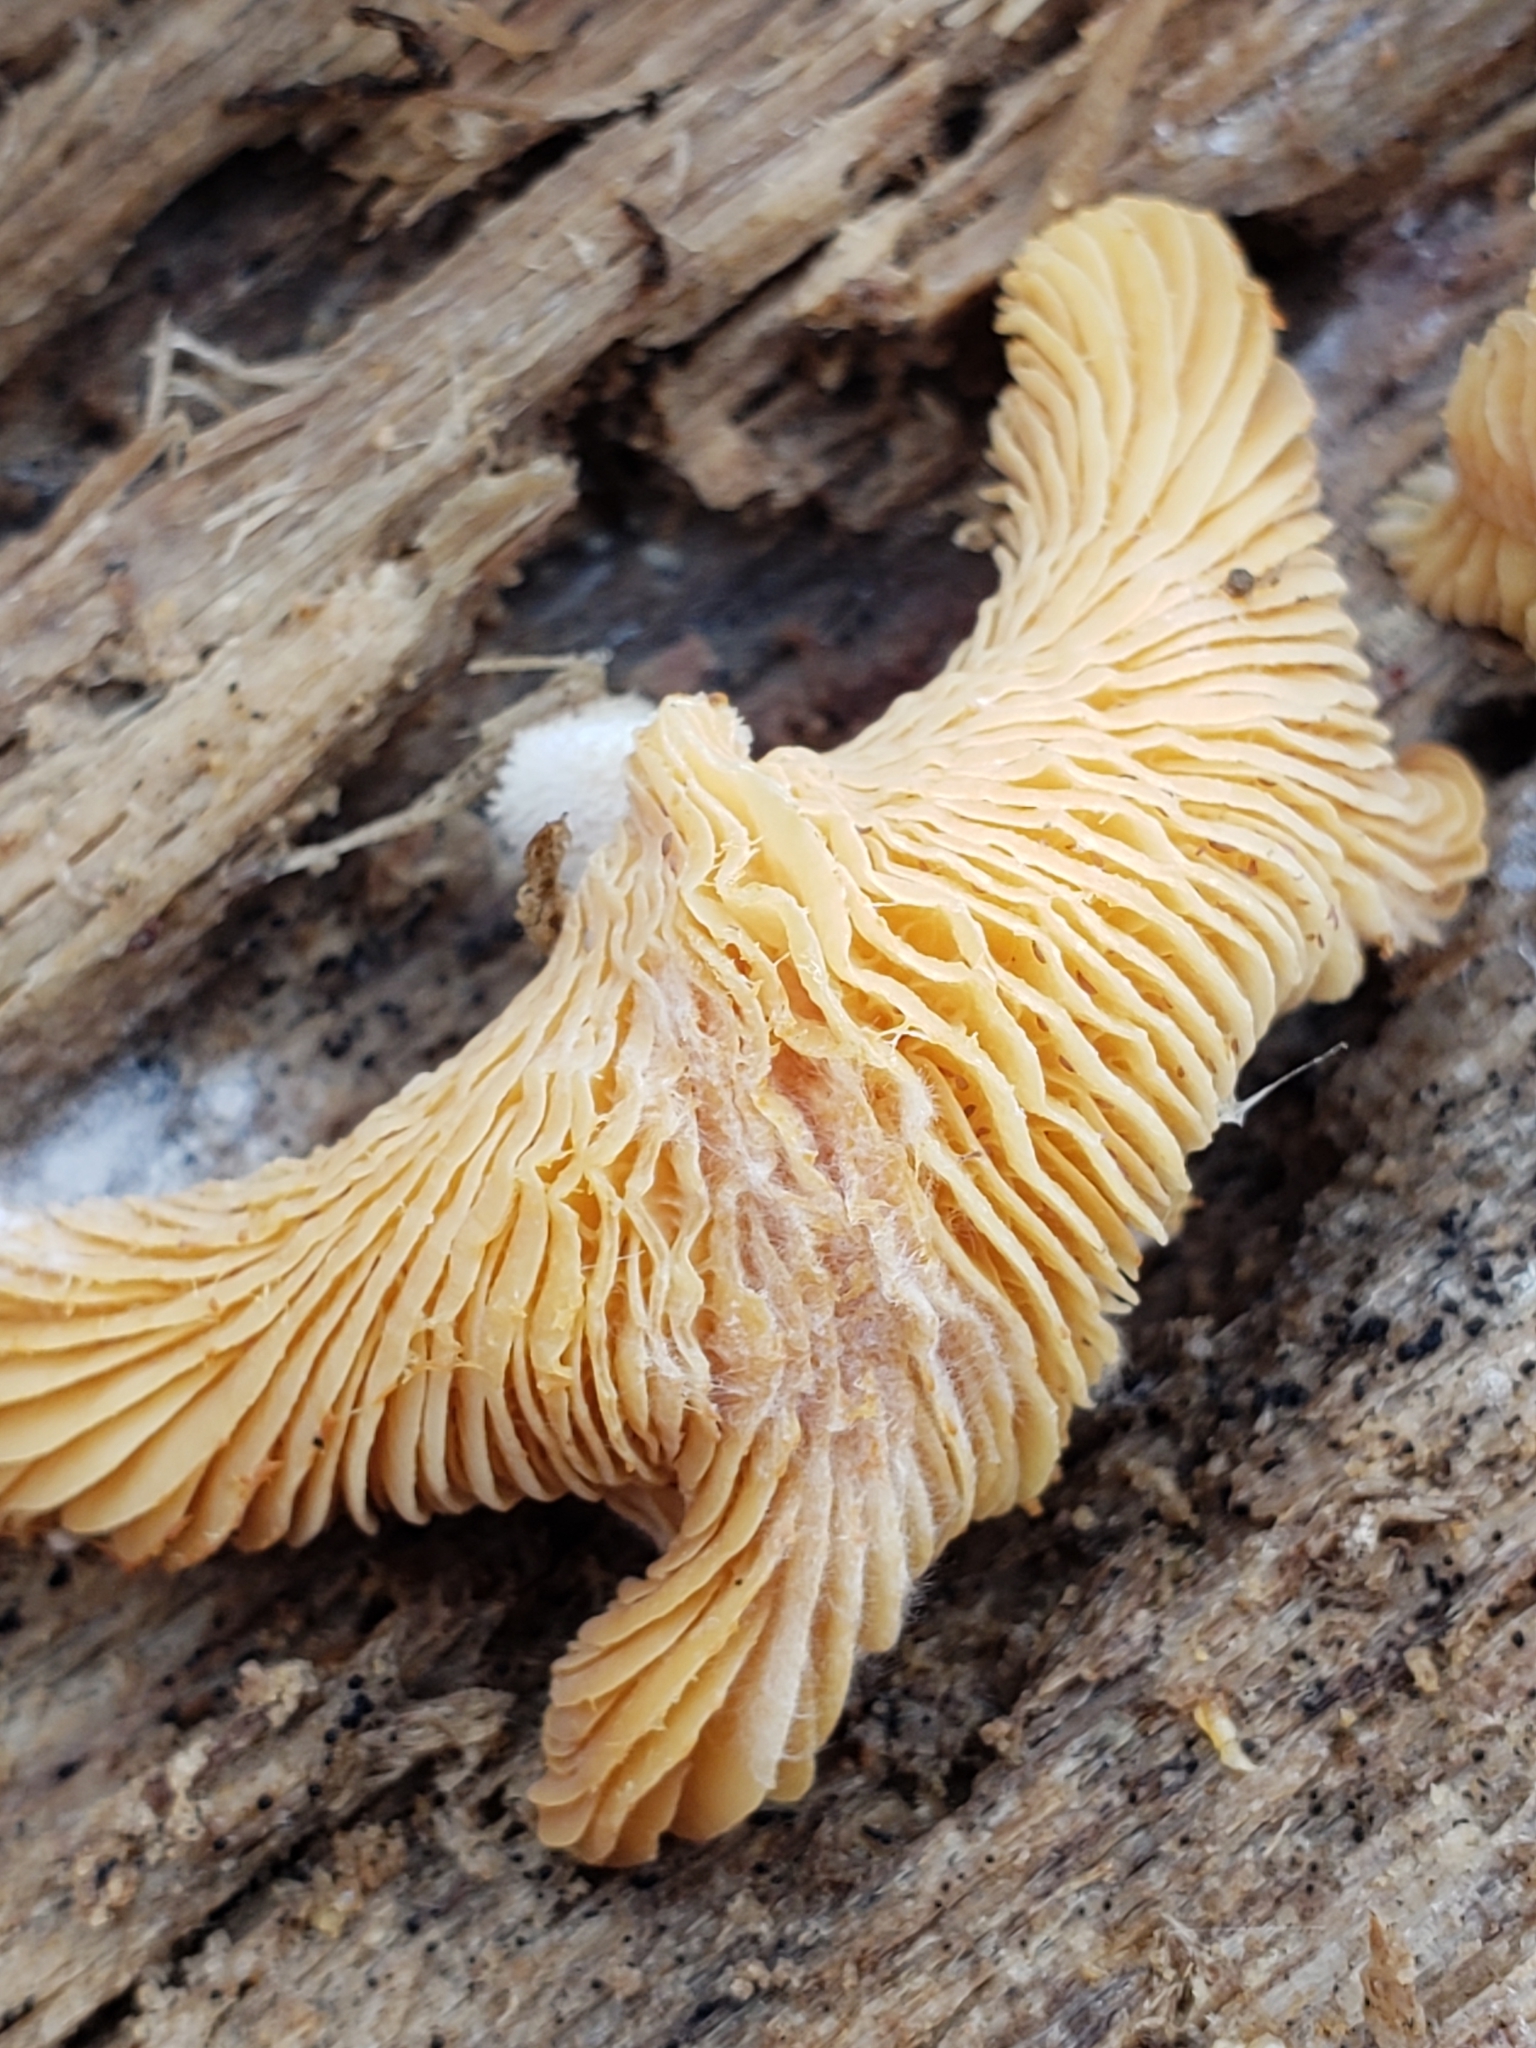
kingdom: Fungi
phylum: Basidiomycota
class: Agaricomycetes
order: Agaricales
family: Phyllotopsidaceae
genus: Phyllotopsis
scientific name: Phyllotopsis nidulans
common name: Orange mock oyster
